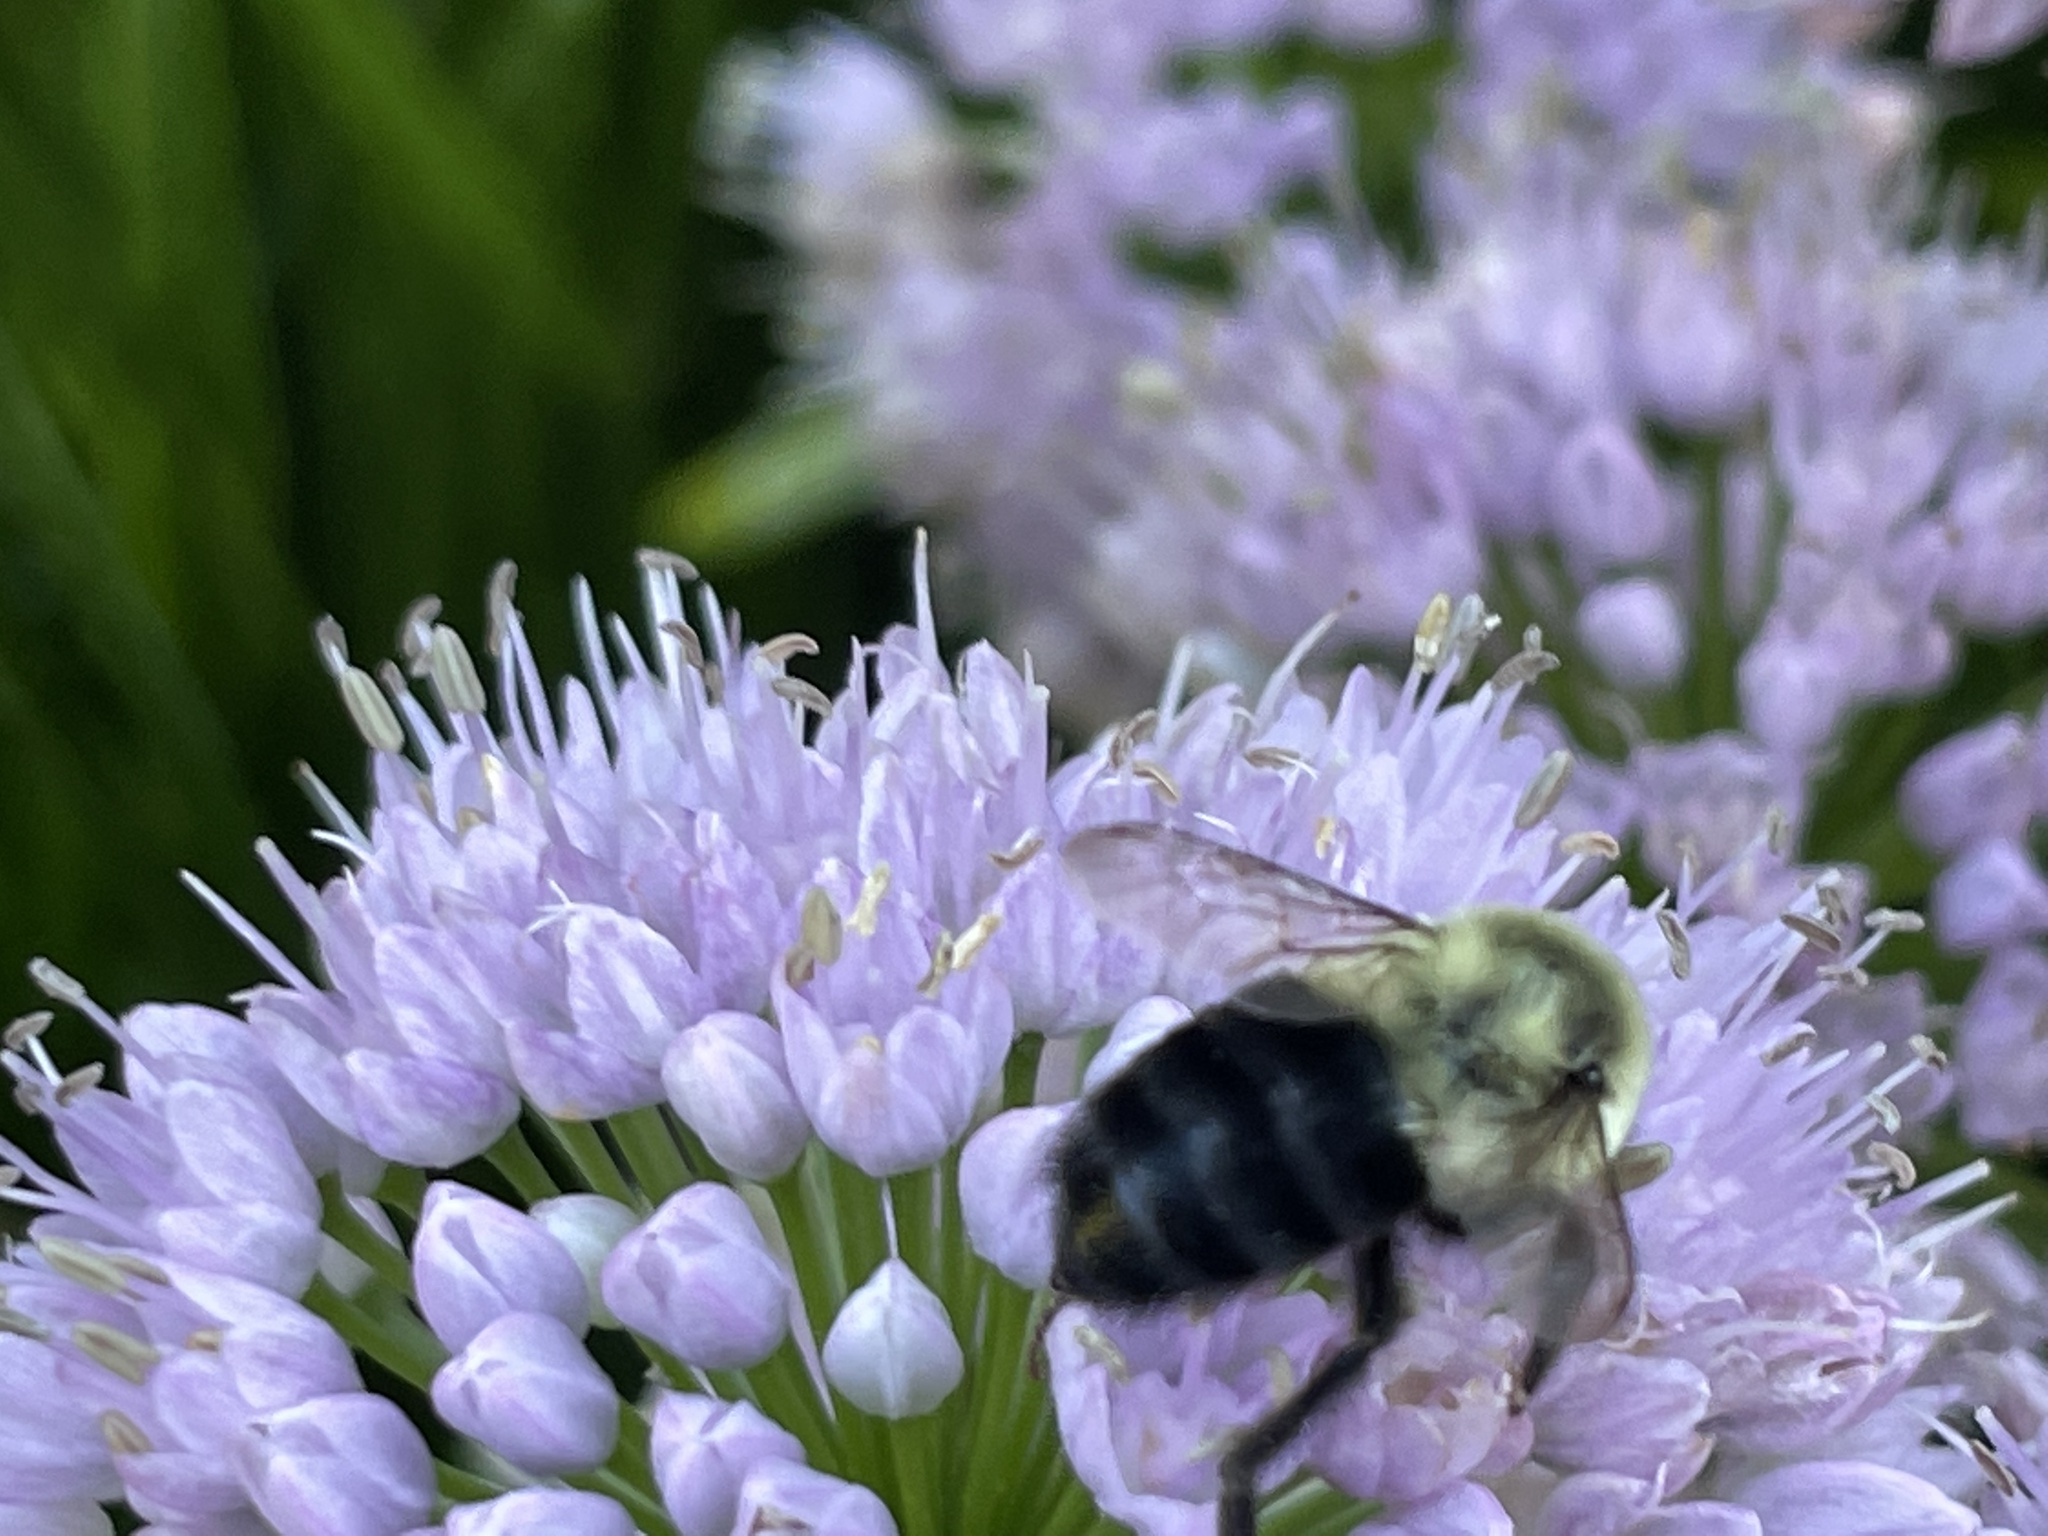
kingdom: Animalia
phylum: Arthropoda
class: Insecta
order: Hymenoptera
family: Apidae
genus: Bombus
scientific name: Bombus impatiens
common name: Common eastern bumble bee
